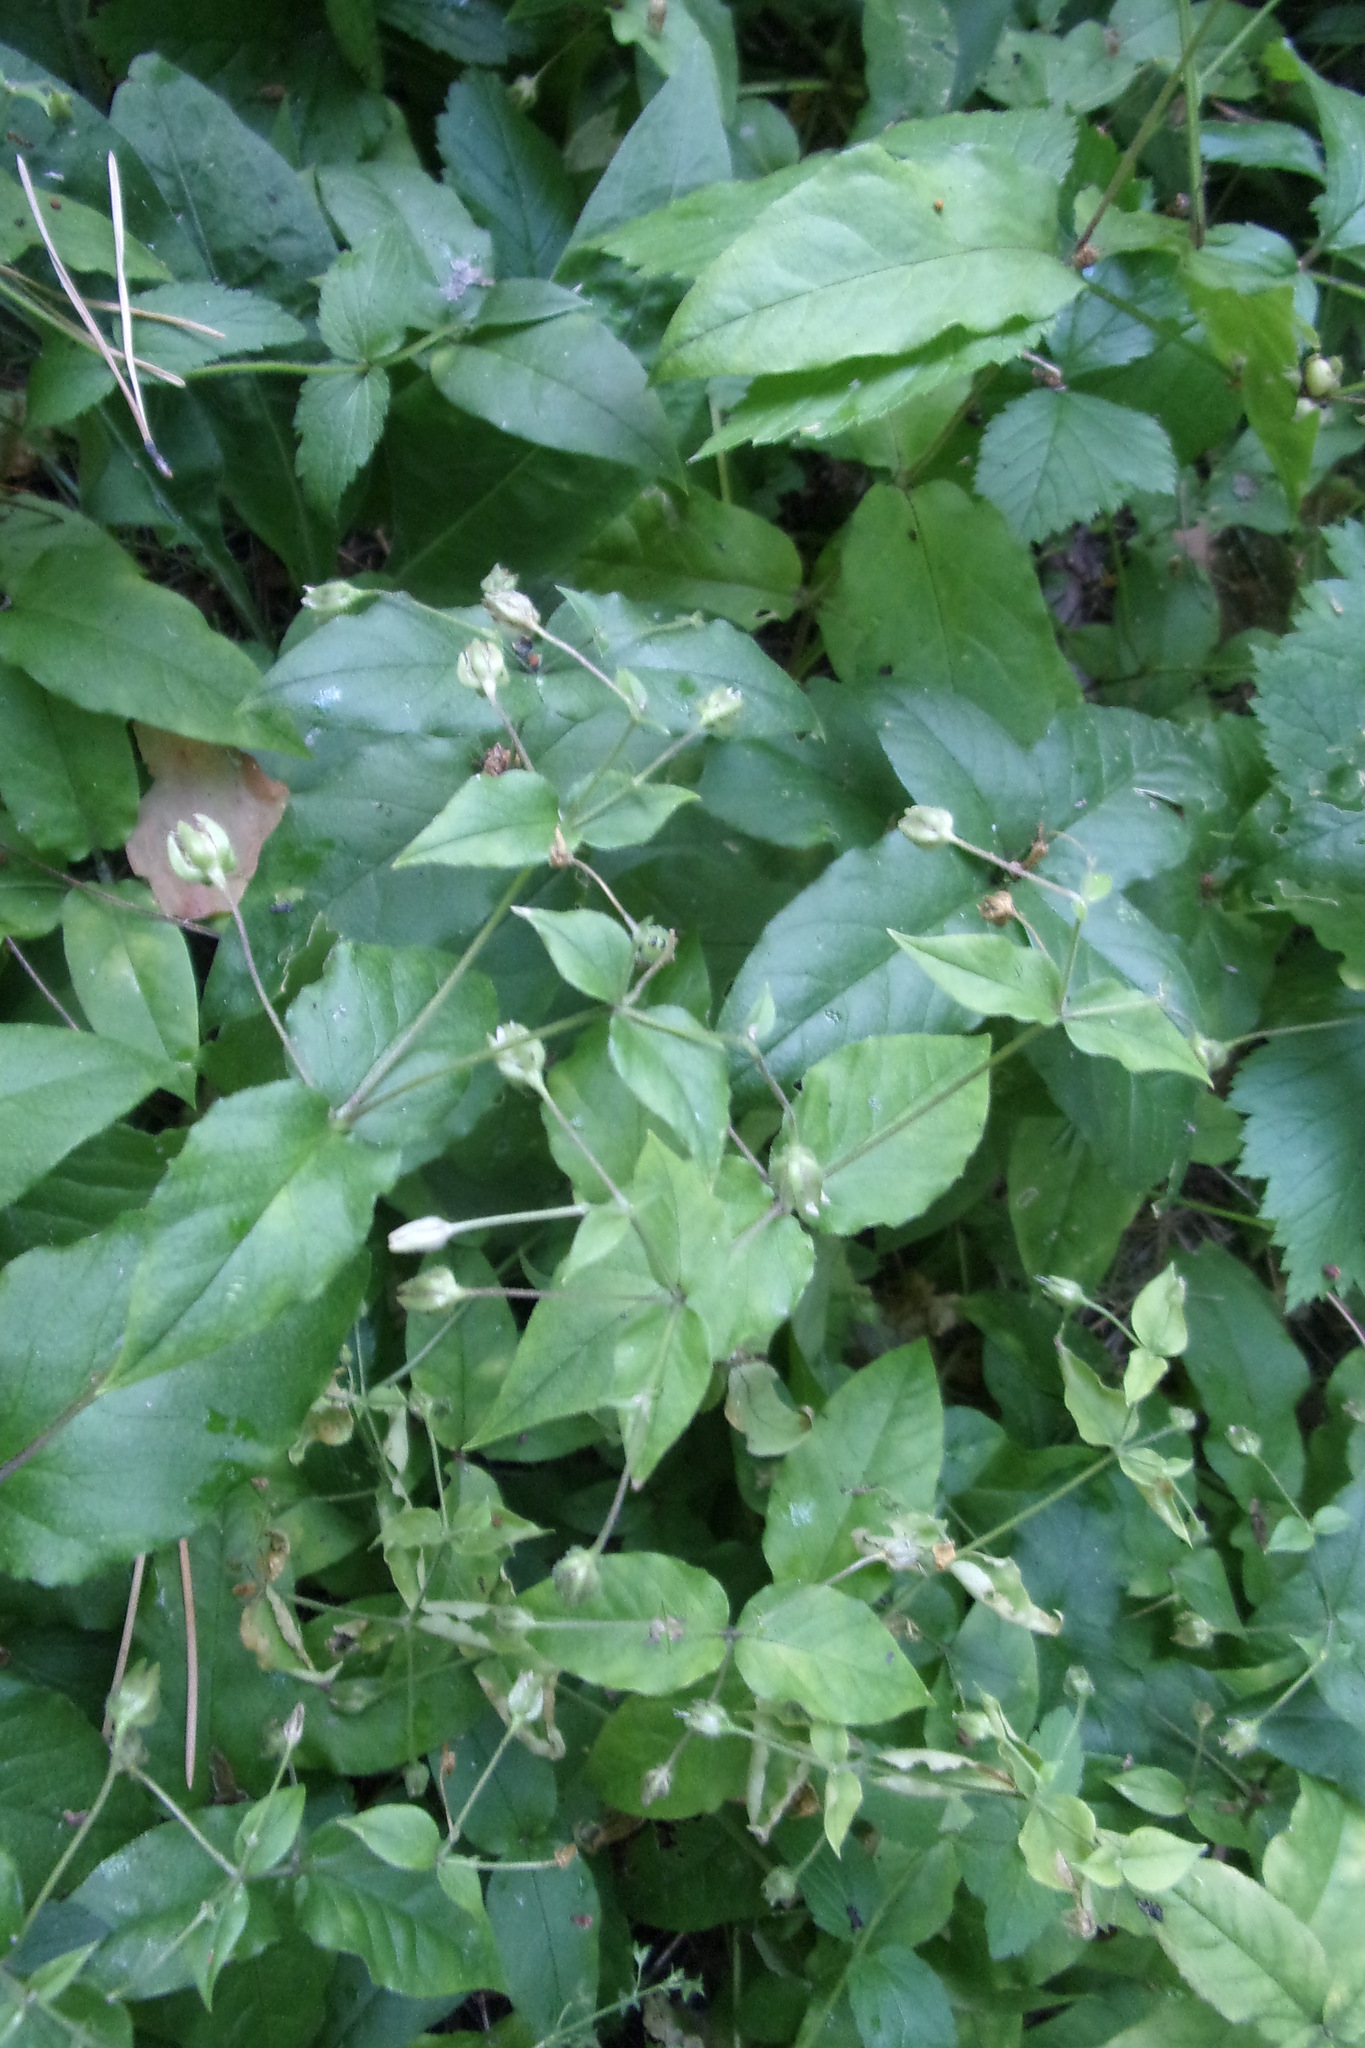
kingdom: Plantae
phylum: Tracheophyta
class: Magnoliopsida
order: Caryophyllales
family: Caryophyllaceae
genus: Stellaria
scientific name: Stellaria bungeana
